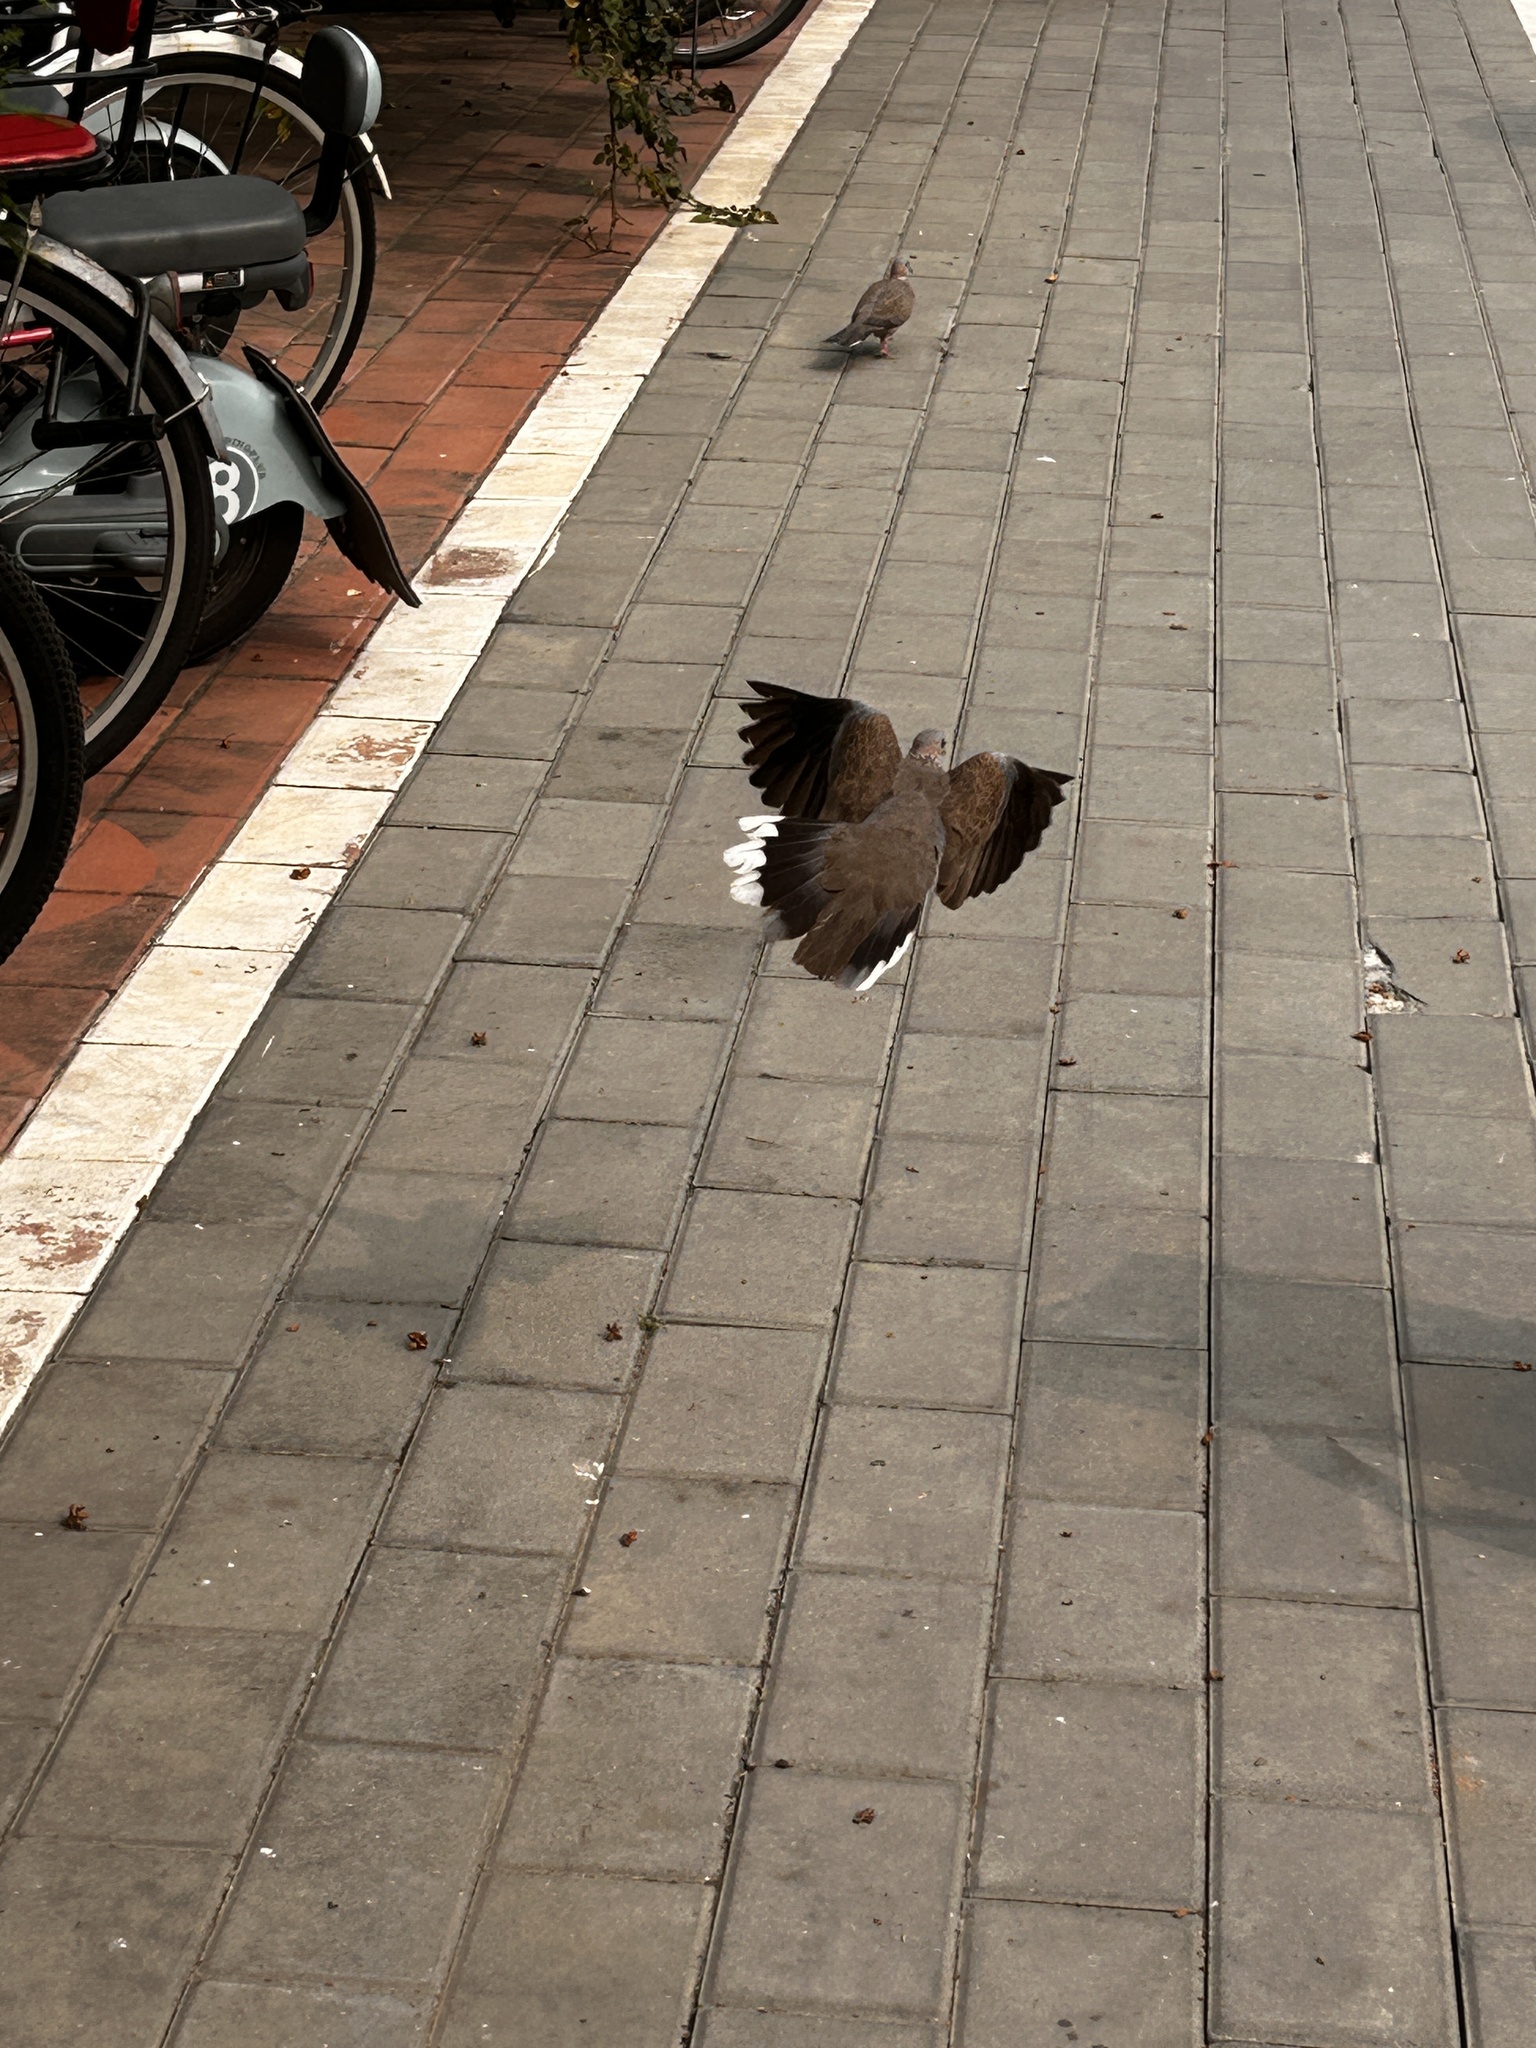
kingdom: Animalia
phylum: Chordata
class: Aves
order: Columbiformes
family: Columbidae
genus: Spilopelia
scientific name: Spilopelia chinensis
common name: Spotted dove
